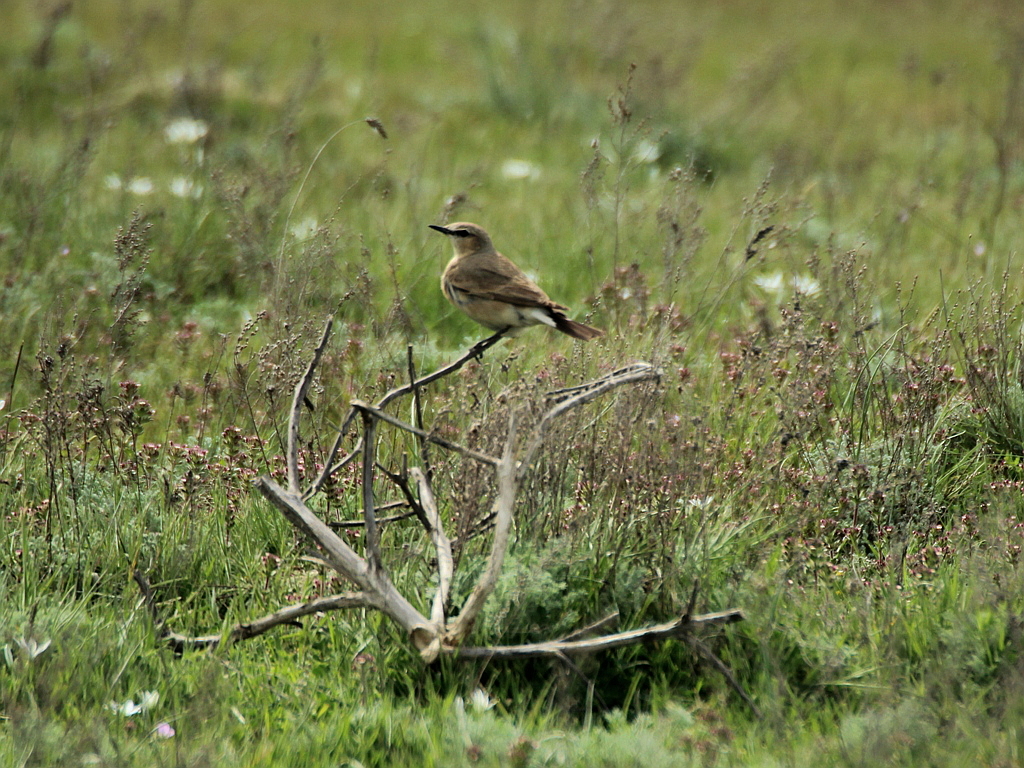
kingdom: Animalia
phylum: Chordata
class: Aves
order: Passeriformes
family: Muscicapidae
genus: Oenanthe
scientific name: Oenanthe isabellina
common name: Isabelline wheatear
